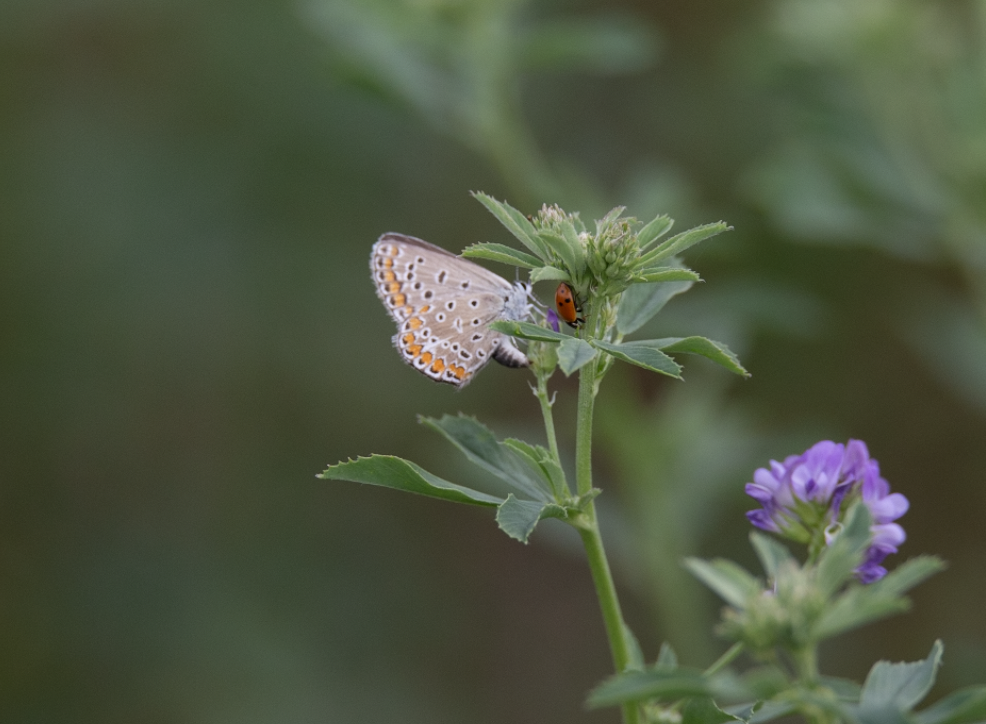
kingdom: Animalia
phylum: Arthropoda
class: Insecta
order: Lepidoptera
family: Lycaenidae
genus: Polyommatus
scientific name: Polyommatus icarus
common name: Common blue
